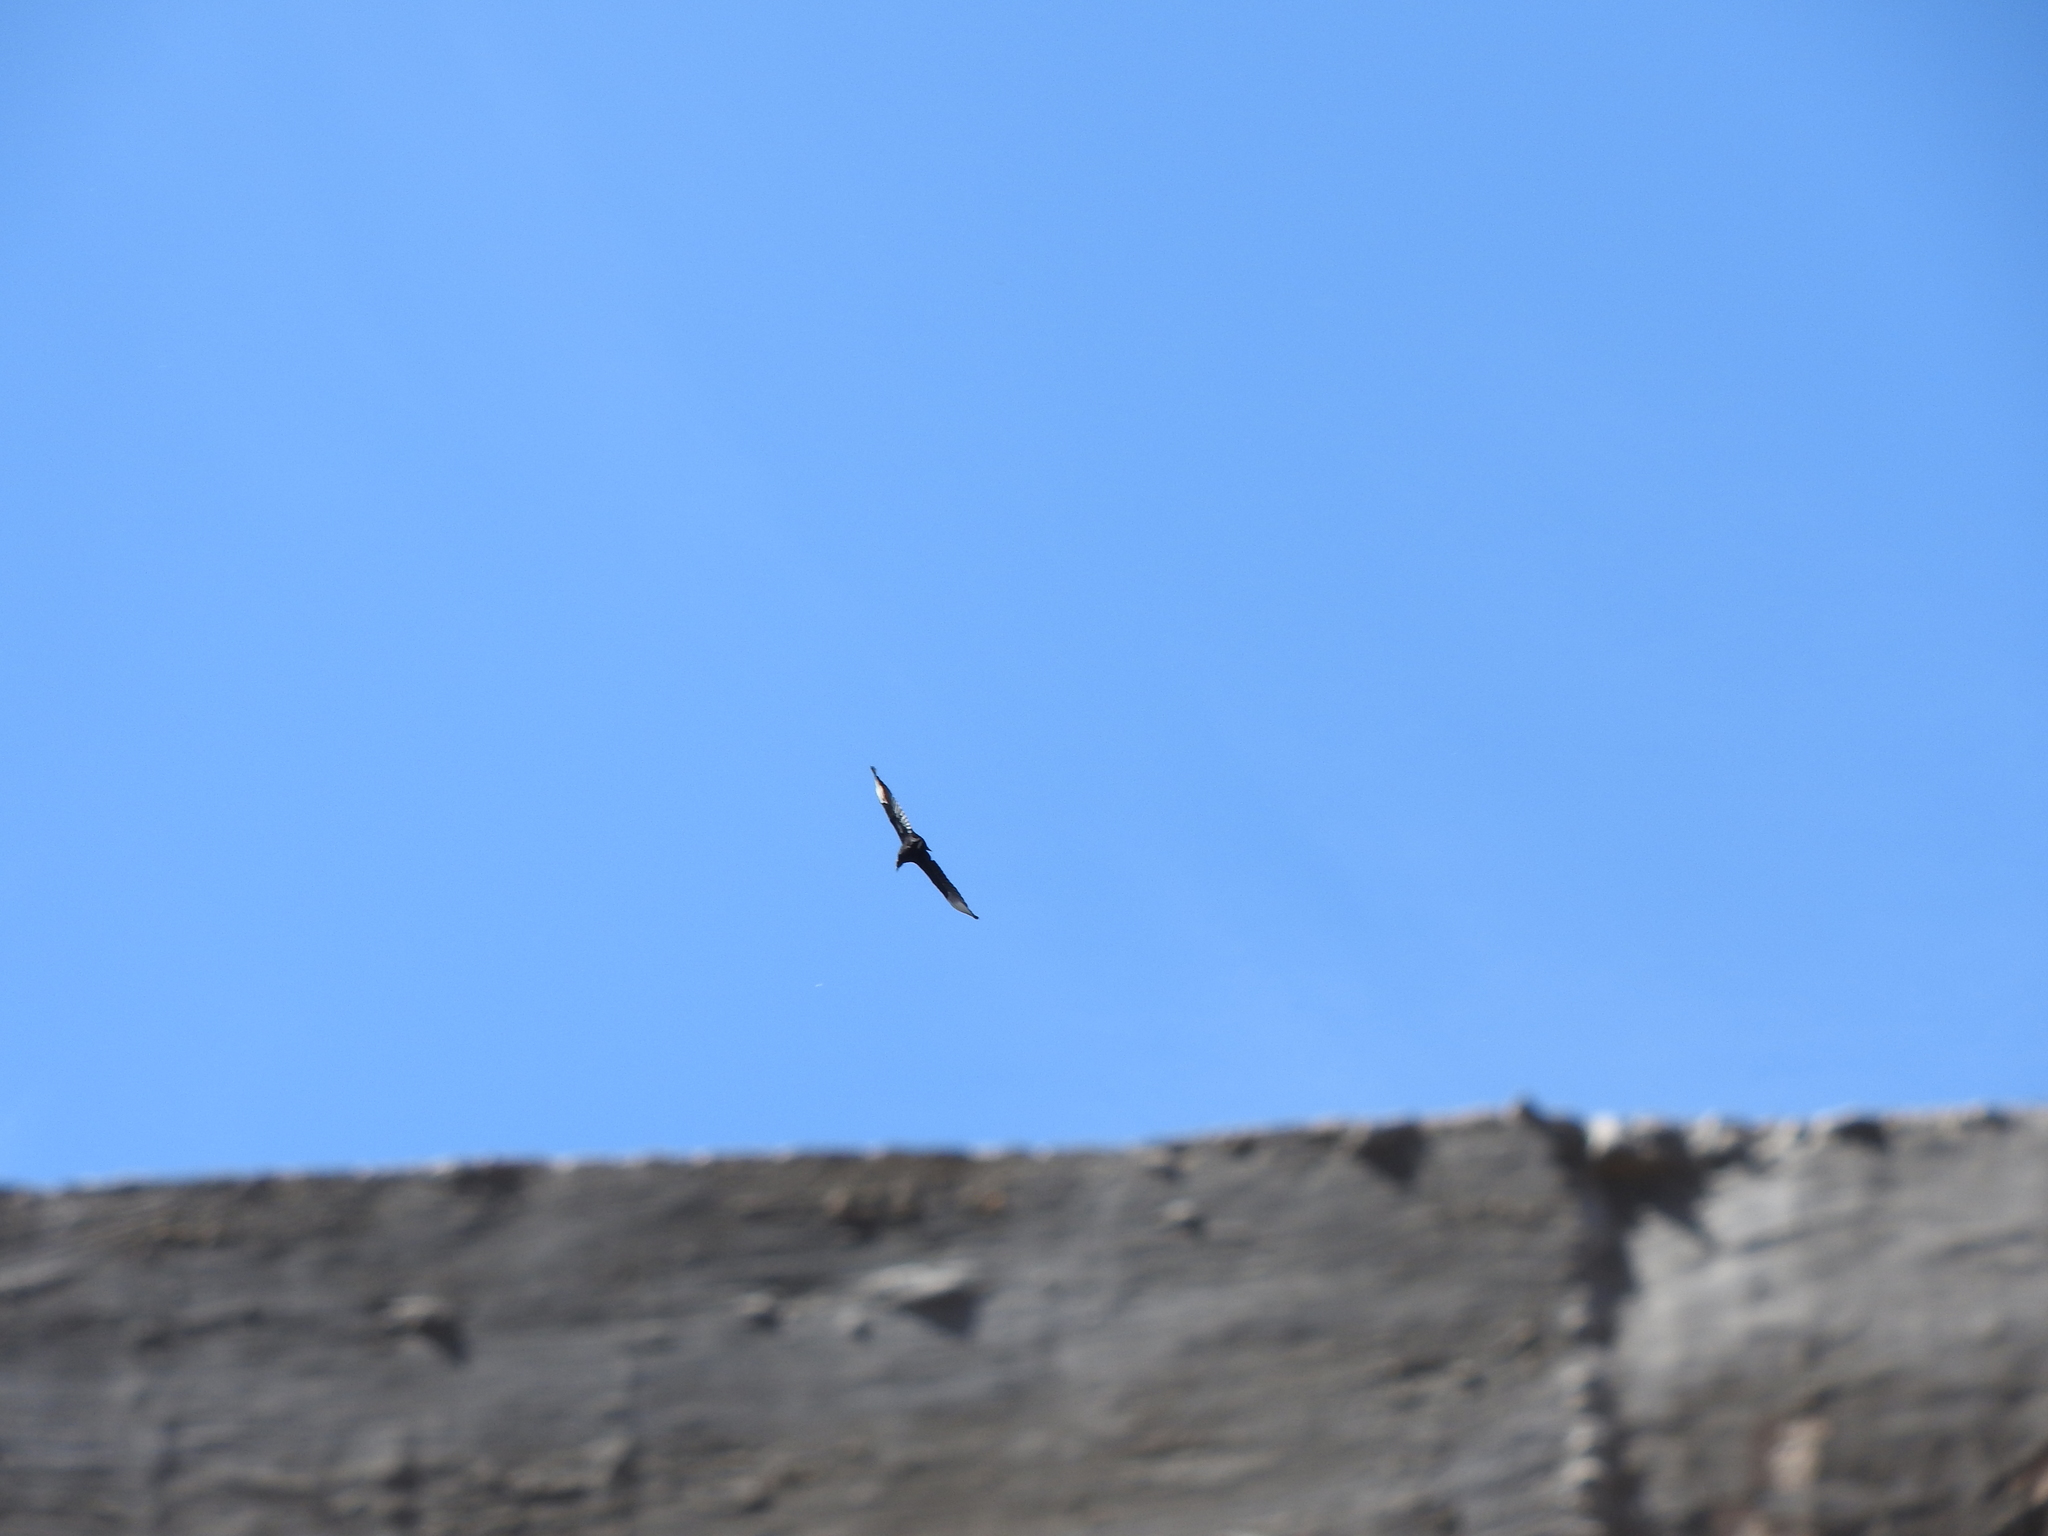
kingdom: Animalia
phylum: Chordata
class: Aves
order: Accipitriformes
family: Cathartidae
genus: Coragyps
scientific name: Coragyps atratus
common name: Black vulture
